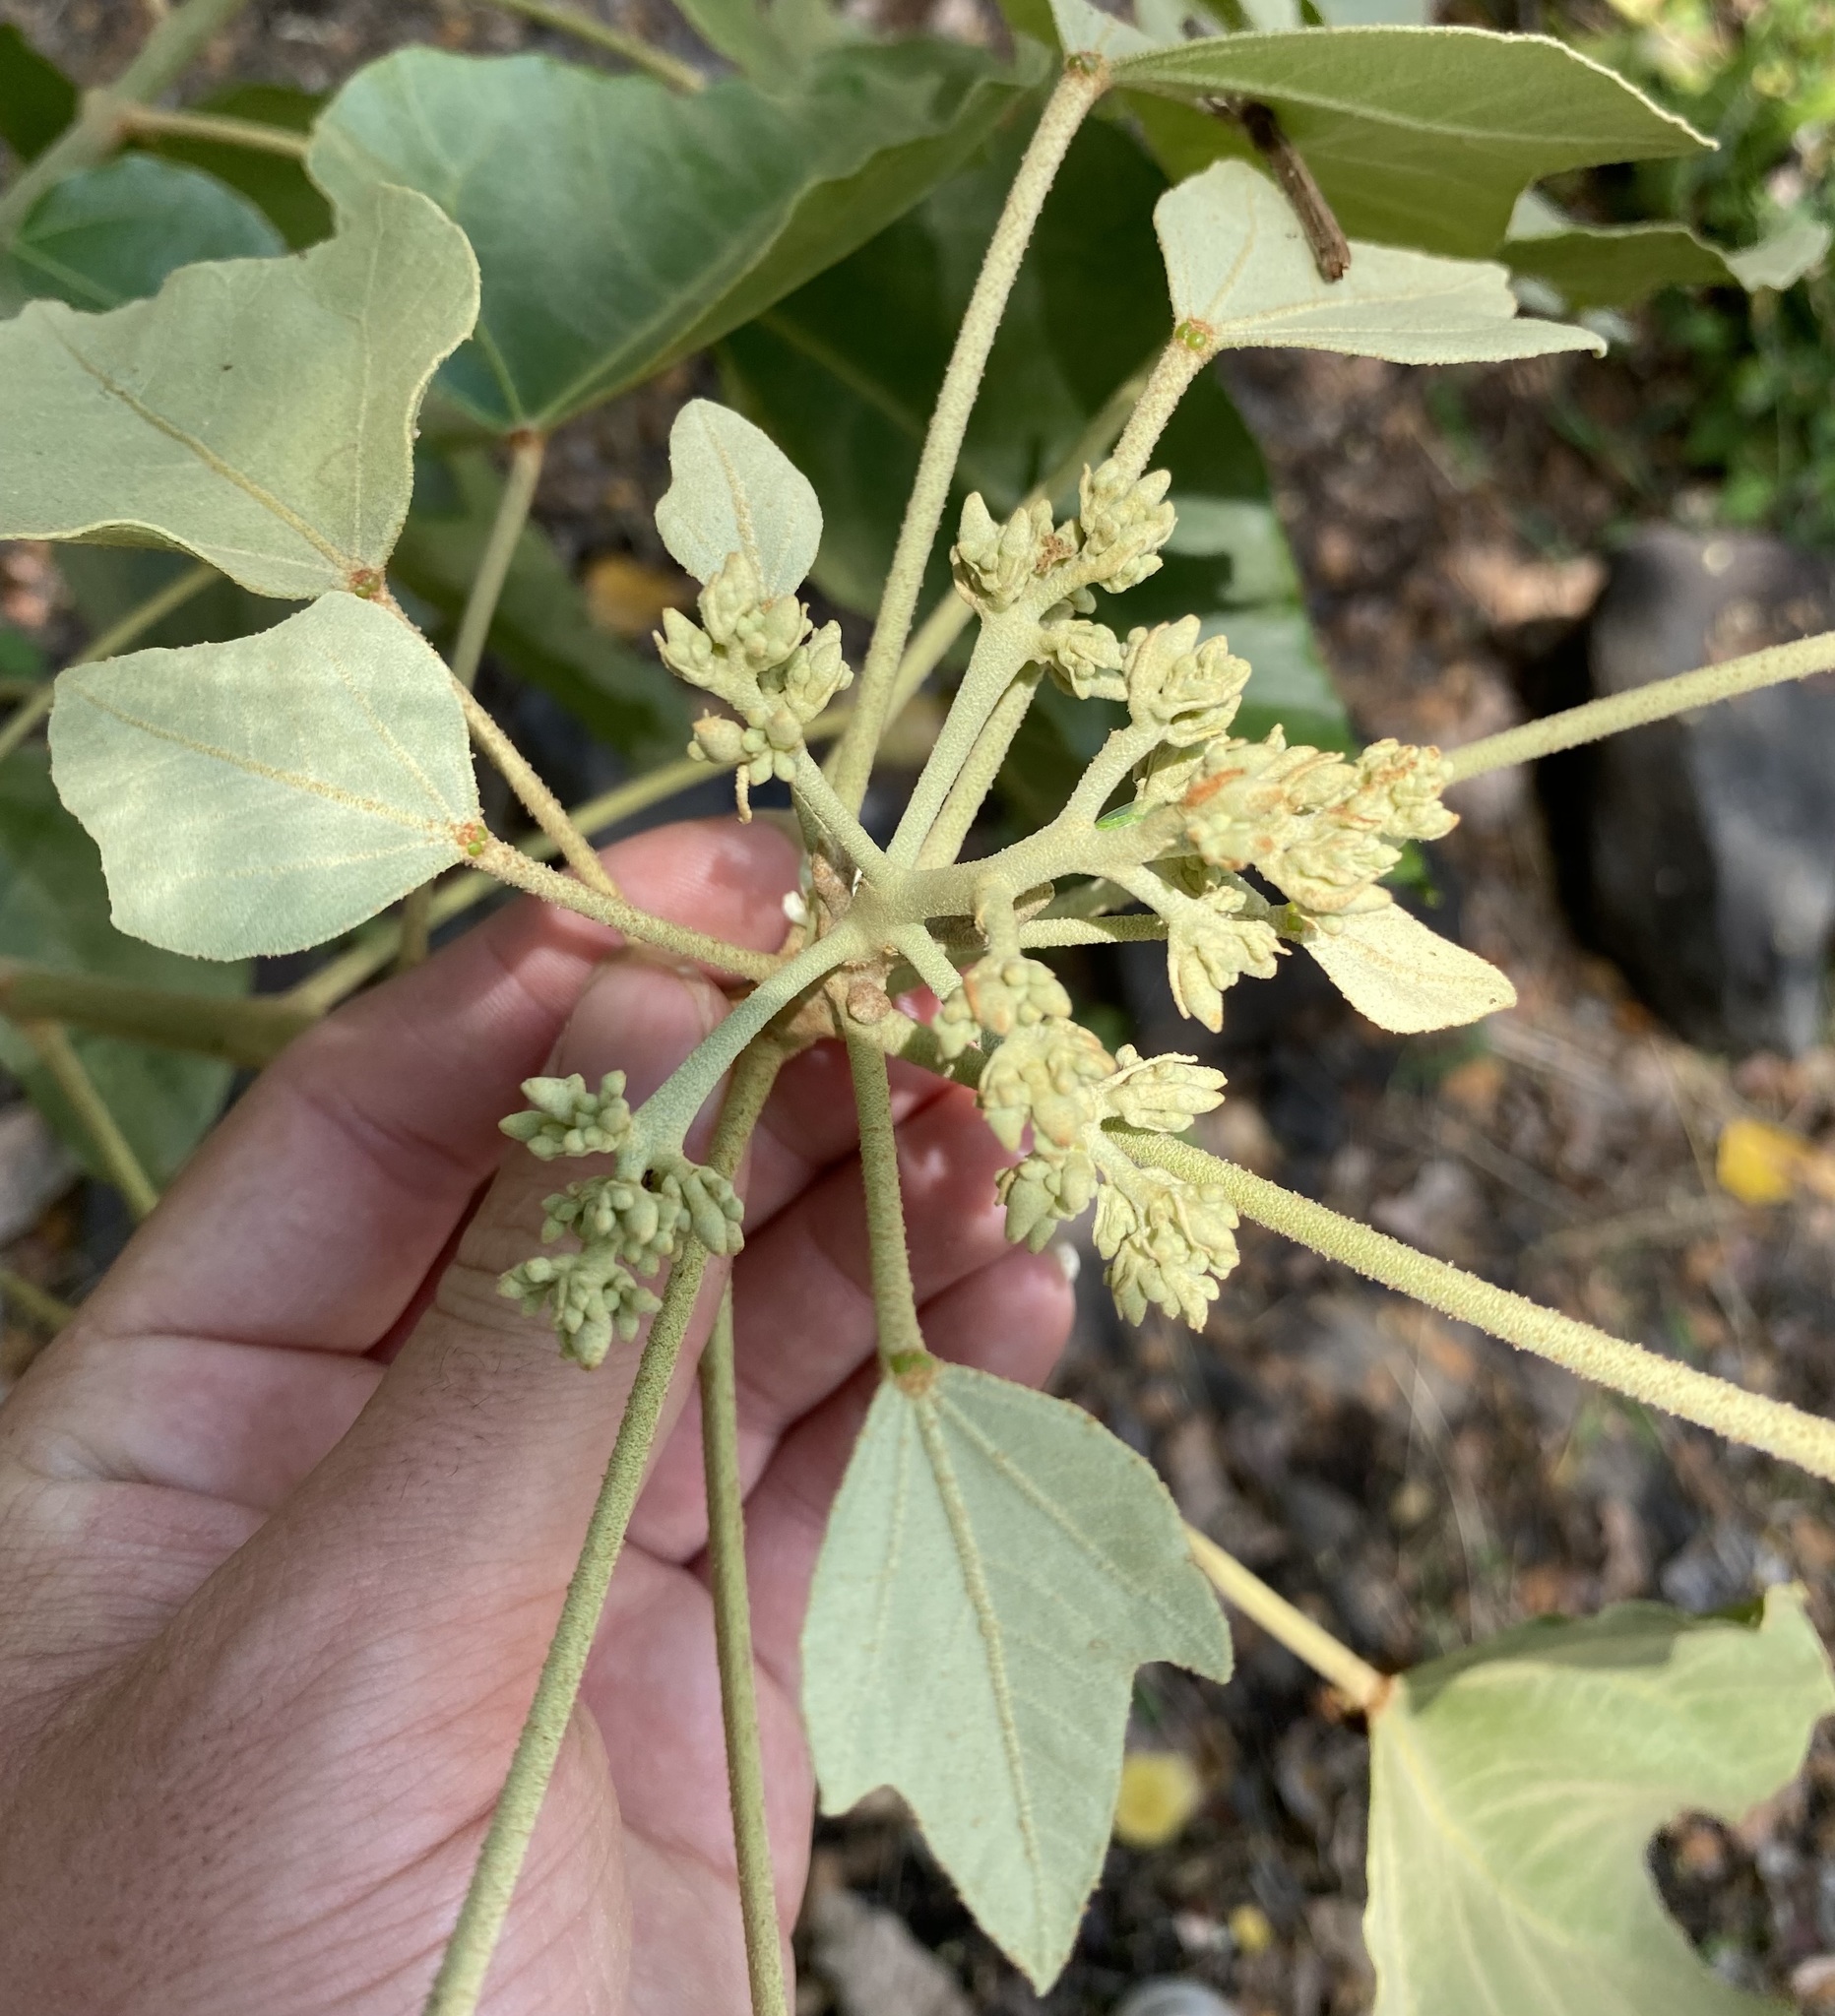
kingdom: Plantae
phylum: Tracheophyta
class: Magnoliopsida
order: Malpighiales
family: Euphorbiaceae
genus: Aleurites
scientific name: Aleurites moluccanus
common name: Candlenut tree
